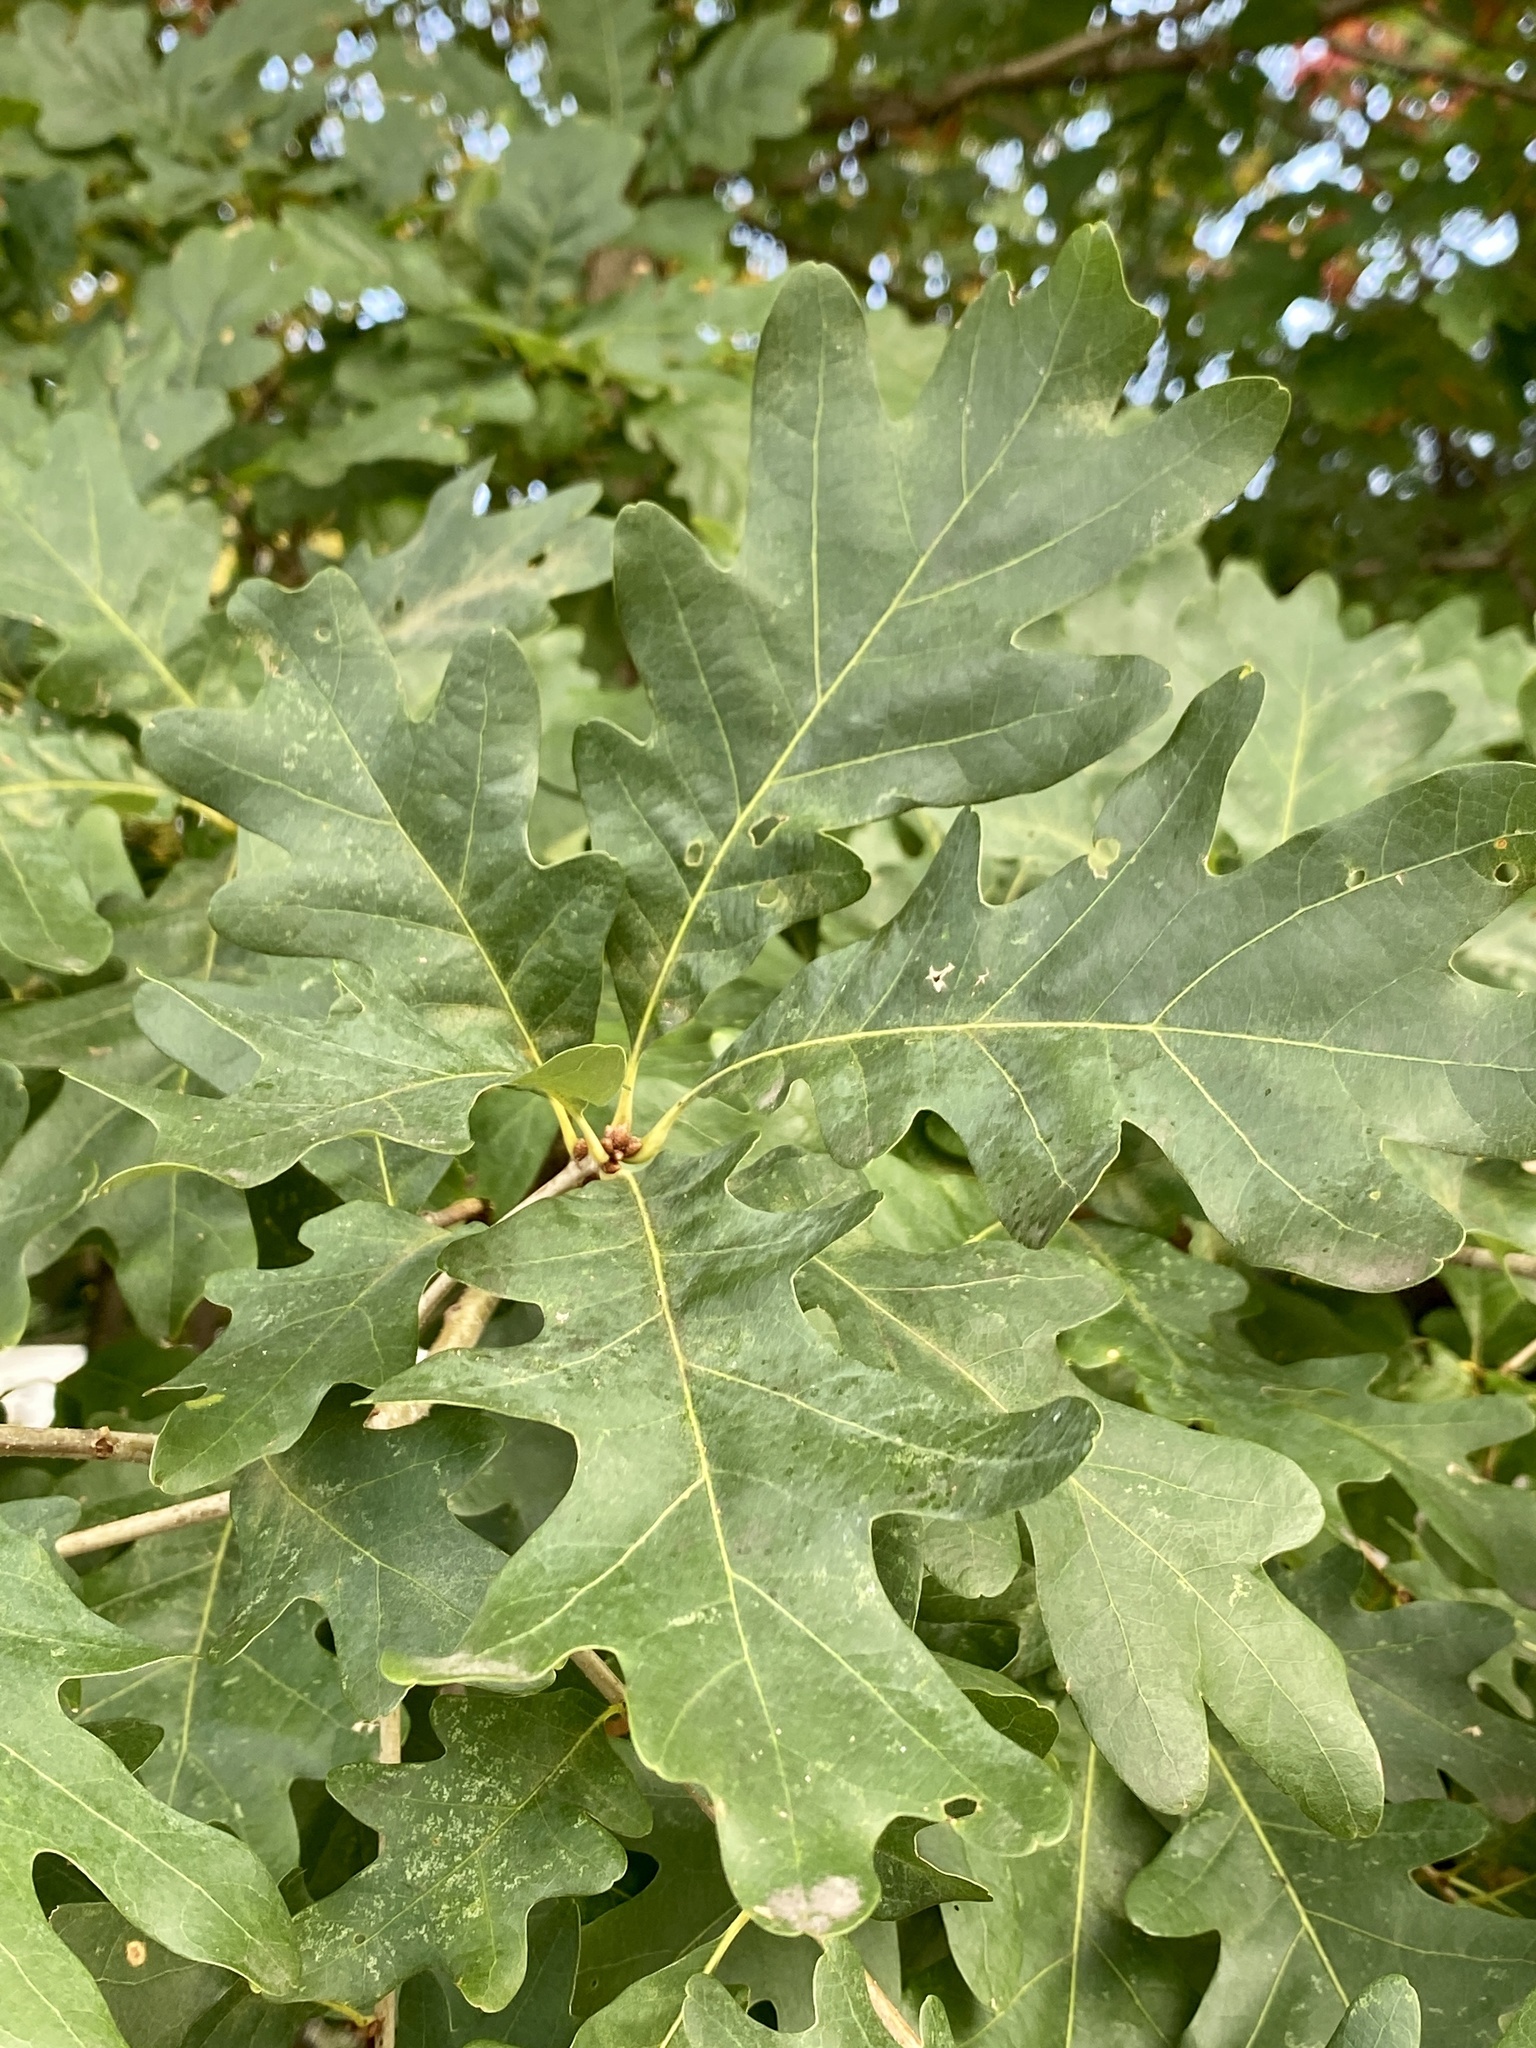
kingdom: Plantae
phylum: Tracheophyta
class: Magnoliopsida
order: Fagales
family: Fagaceae
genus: Quercus
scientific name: Quercus alba
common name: White oak
